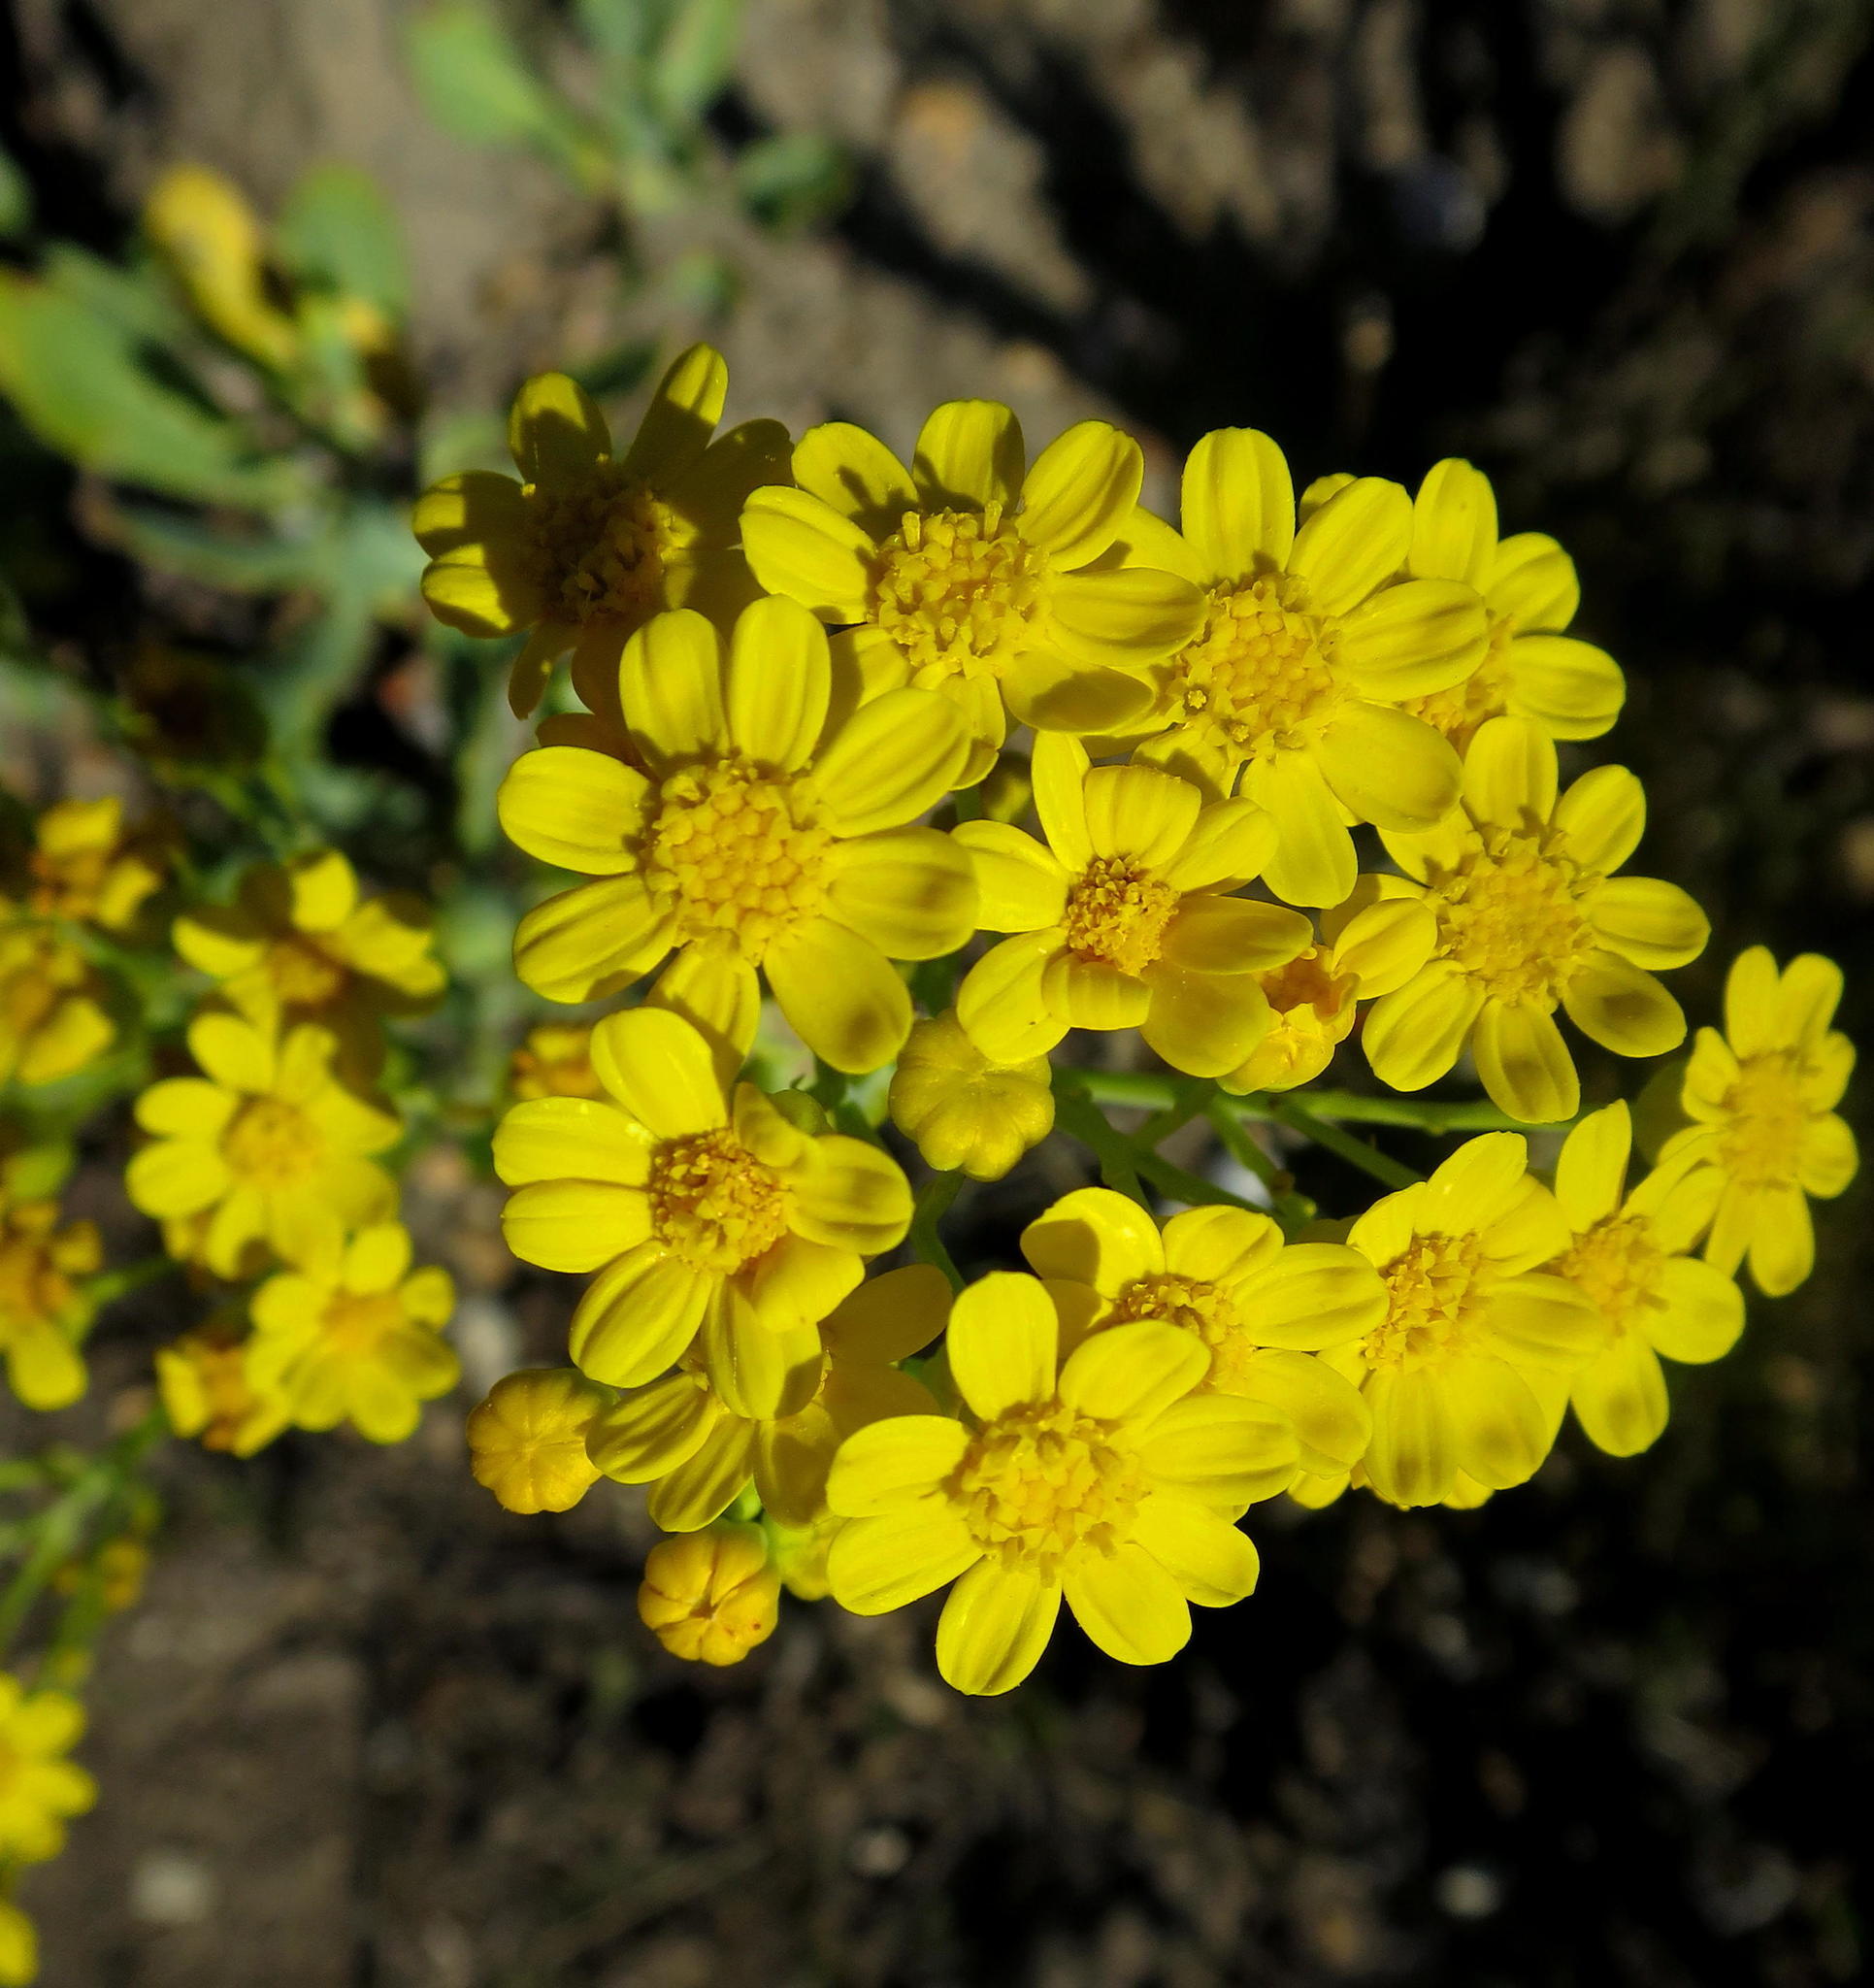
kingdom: Plantae
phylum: Tracheophyta
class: Magnoliopsida
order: Asterales
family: Asteraceae
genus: Othonna
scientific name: Othonna parviflora
